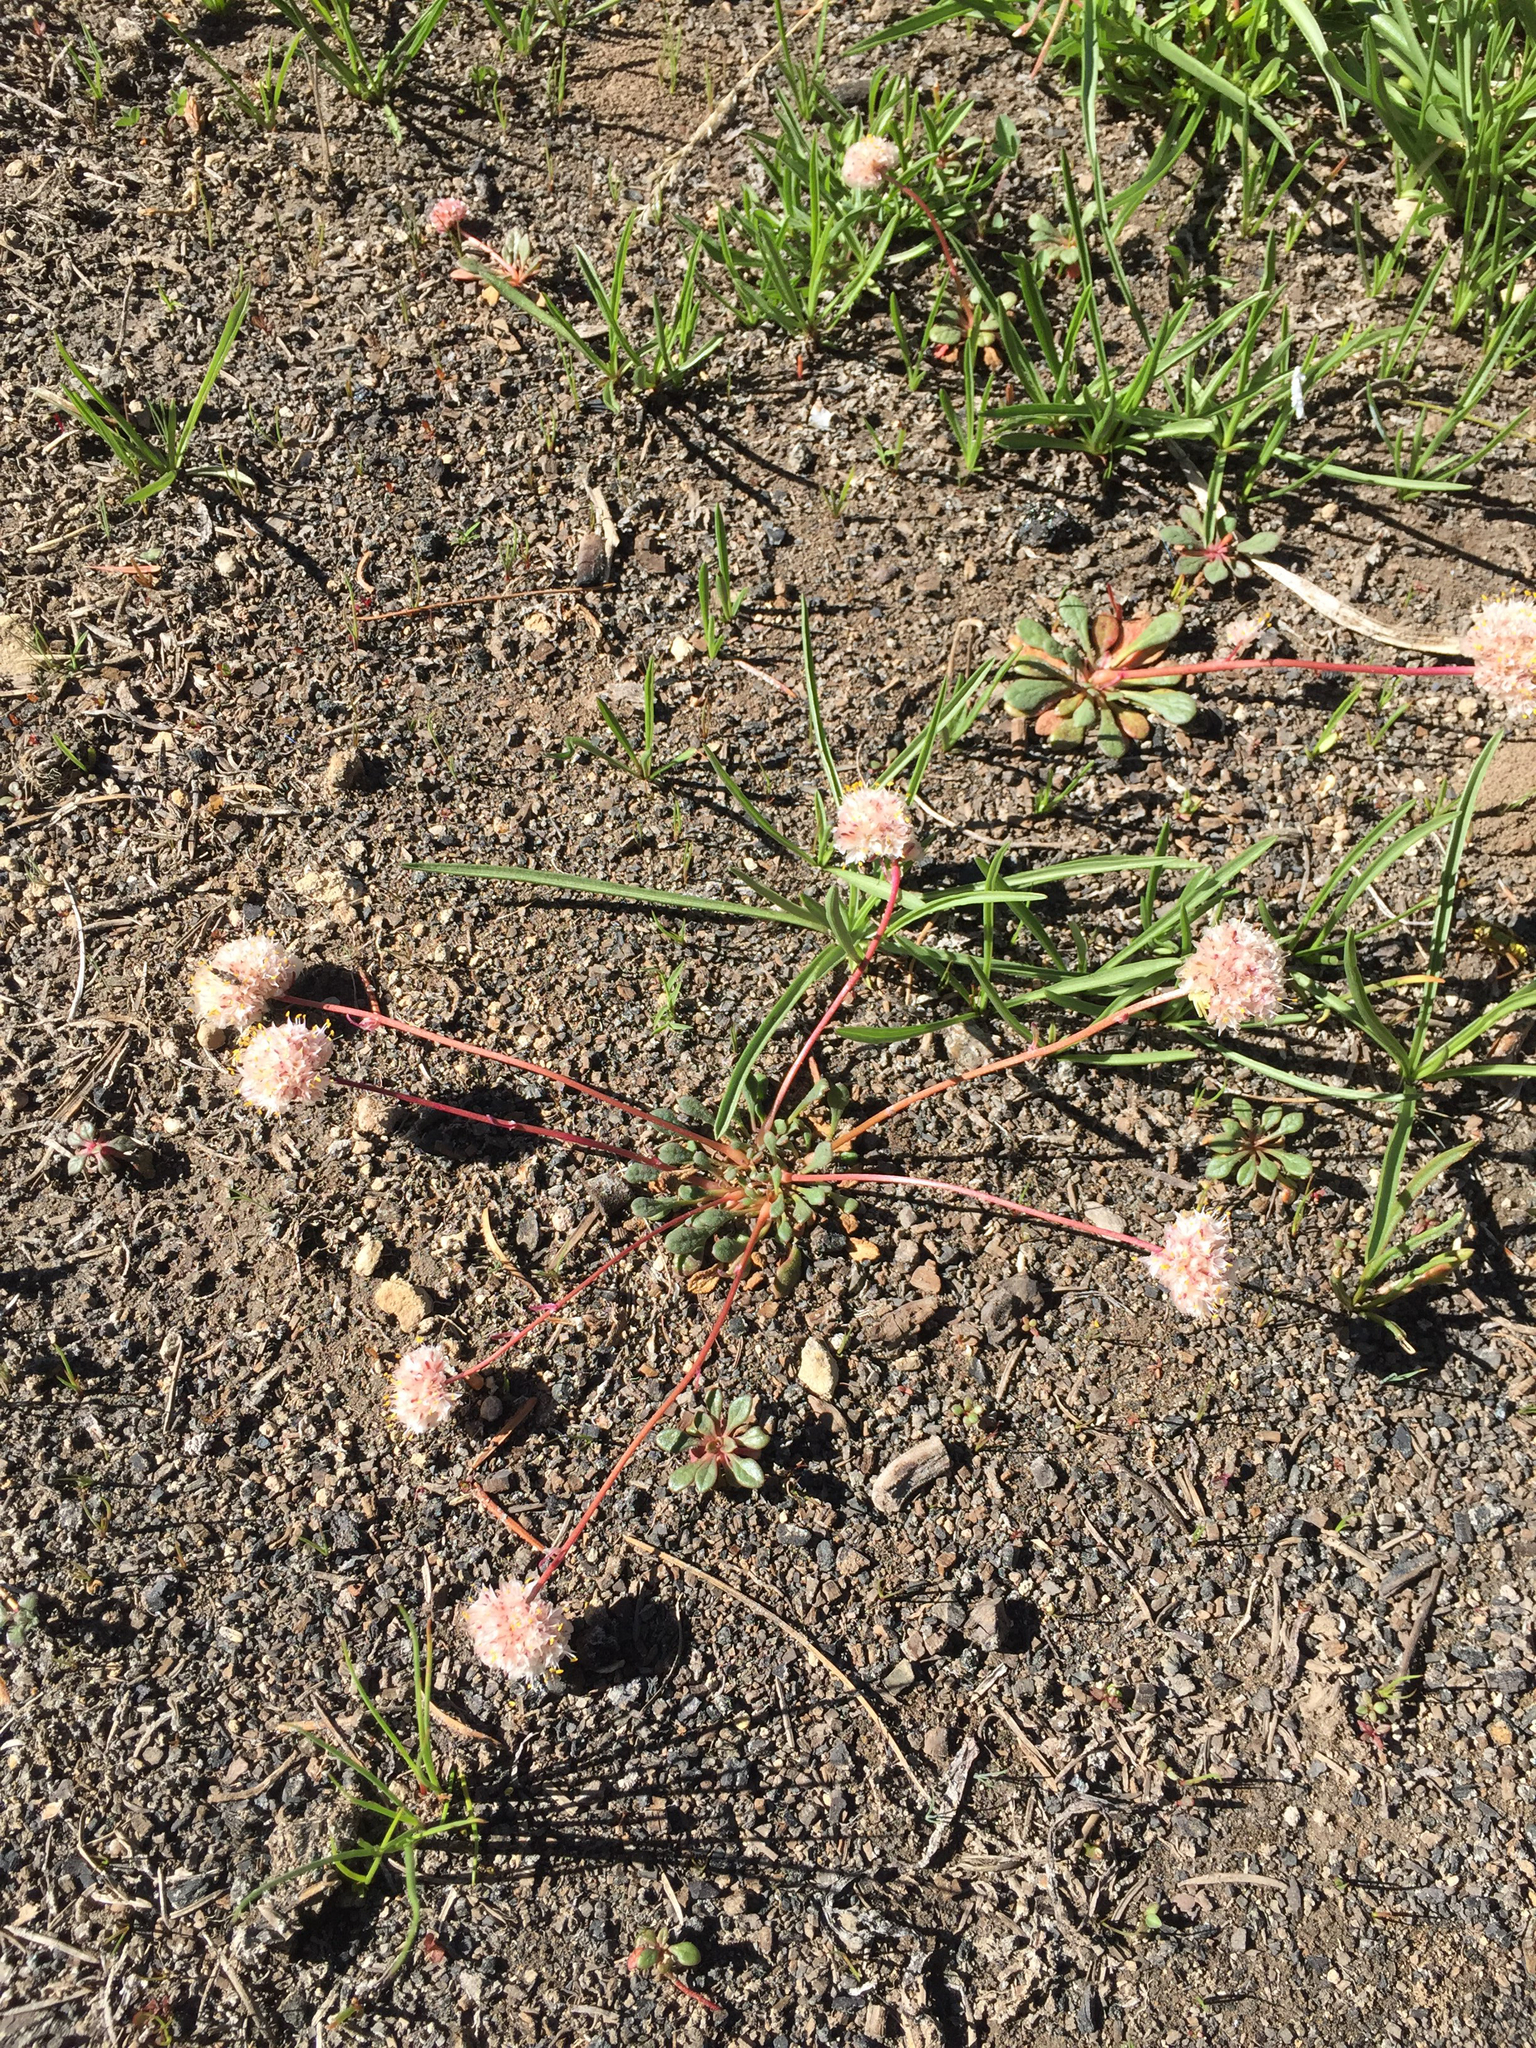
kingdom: Plantae
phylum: Tracheophyta
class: Magnoliopsida
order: Caryophyllales
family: Montiaceae
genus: Calyptridium
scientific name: Calyptridium monospermum
